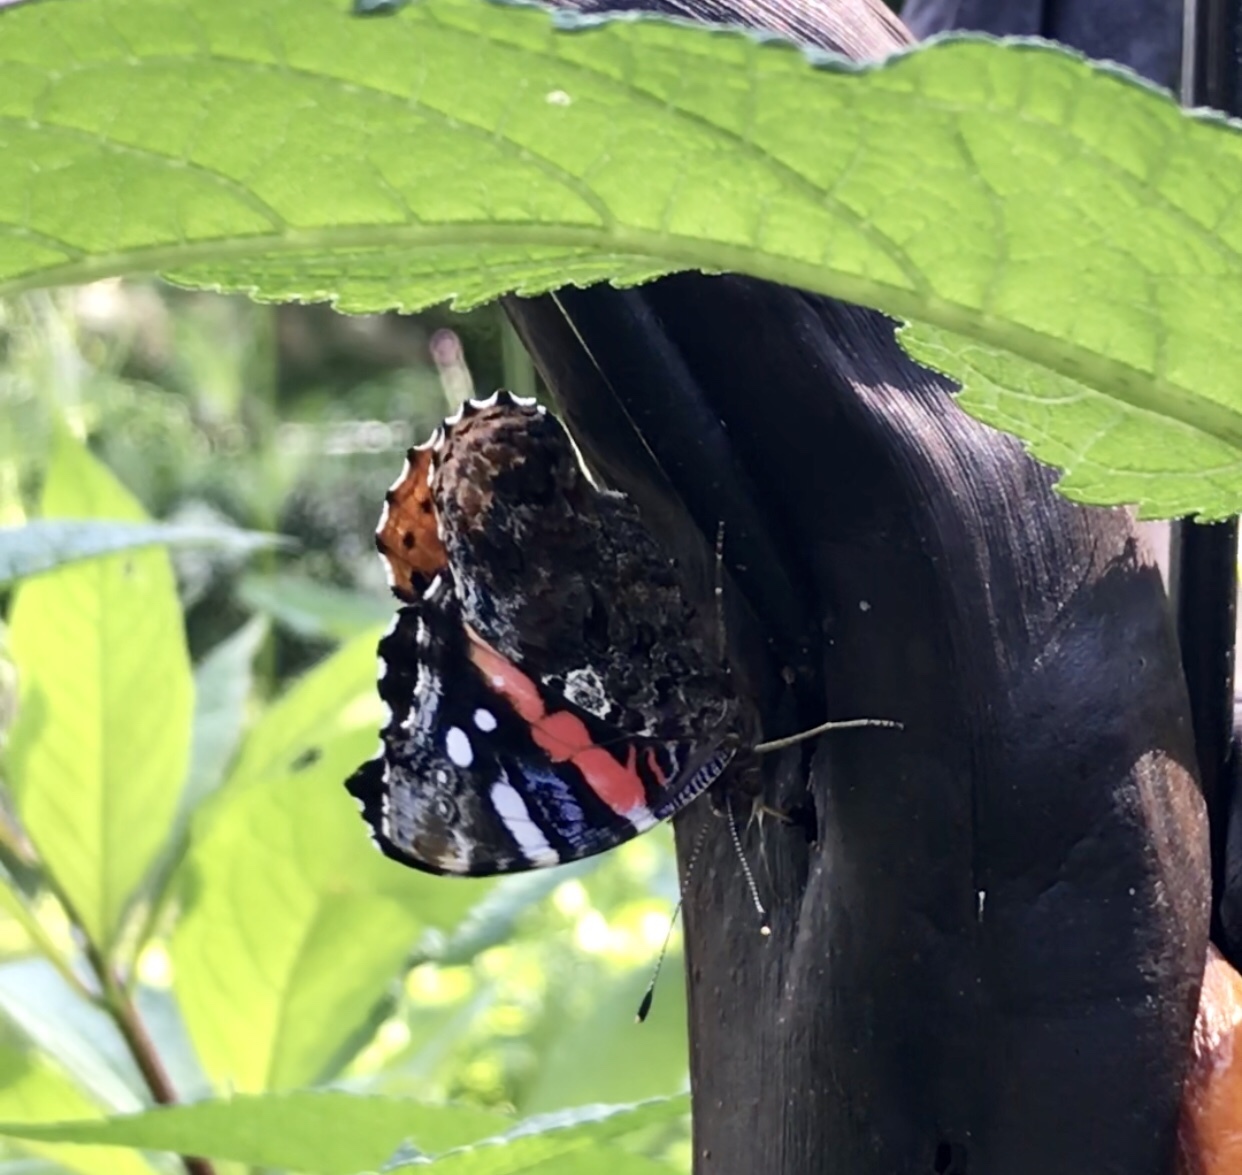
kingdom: Animalia
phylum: Arthropoda
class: Insecta
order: Lepidoptera
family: Nymphalidae
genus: Vanessa
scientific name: Vanessa atalanta
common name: Red admiral
